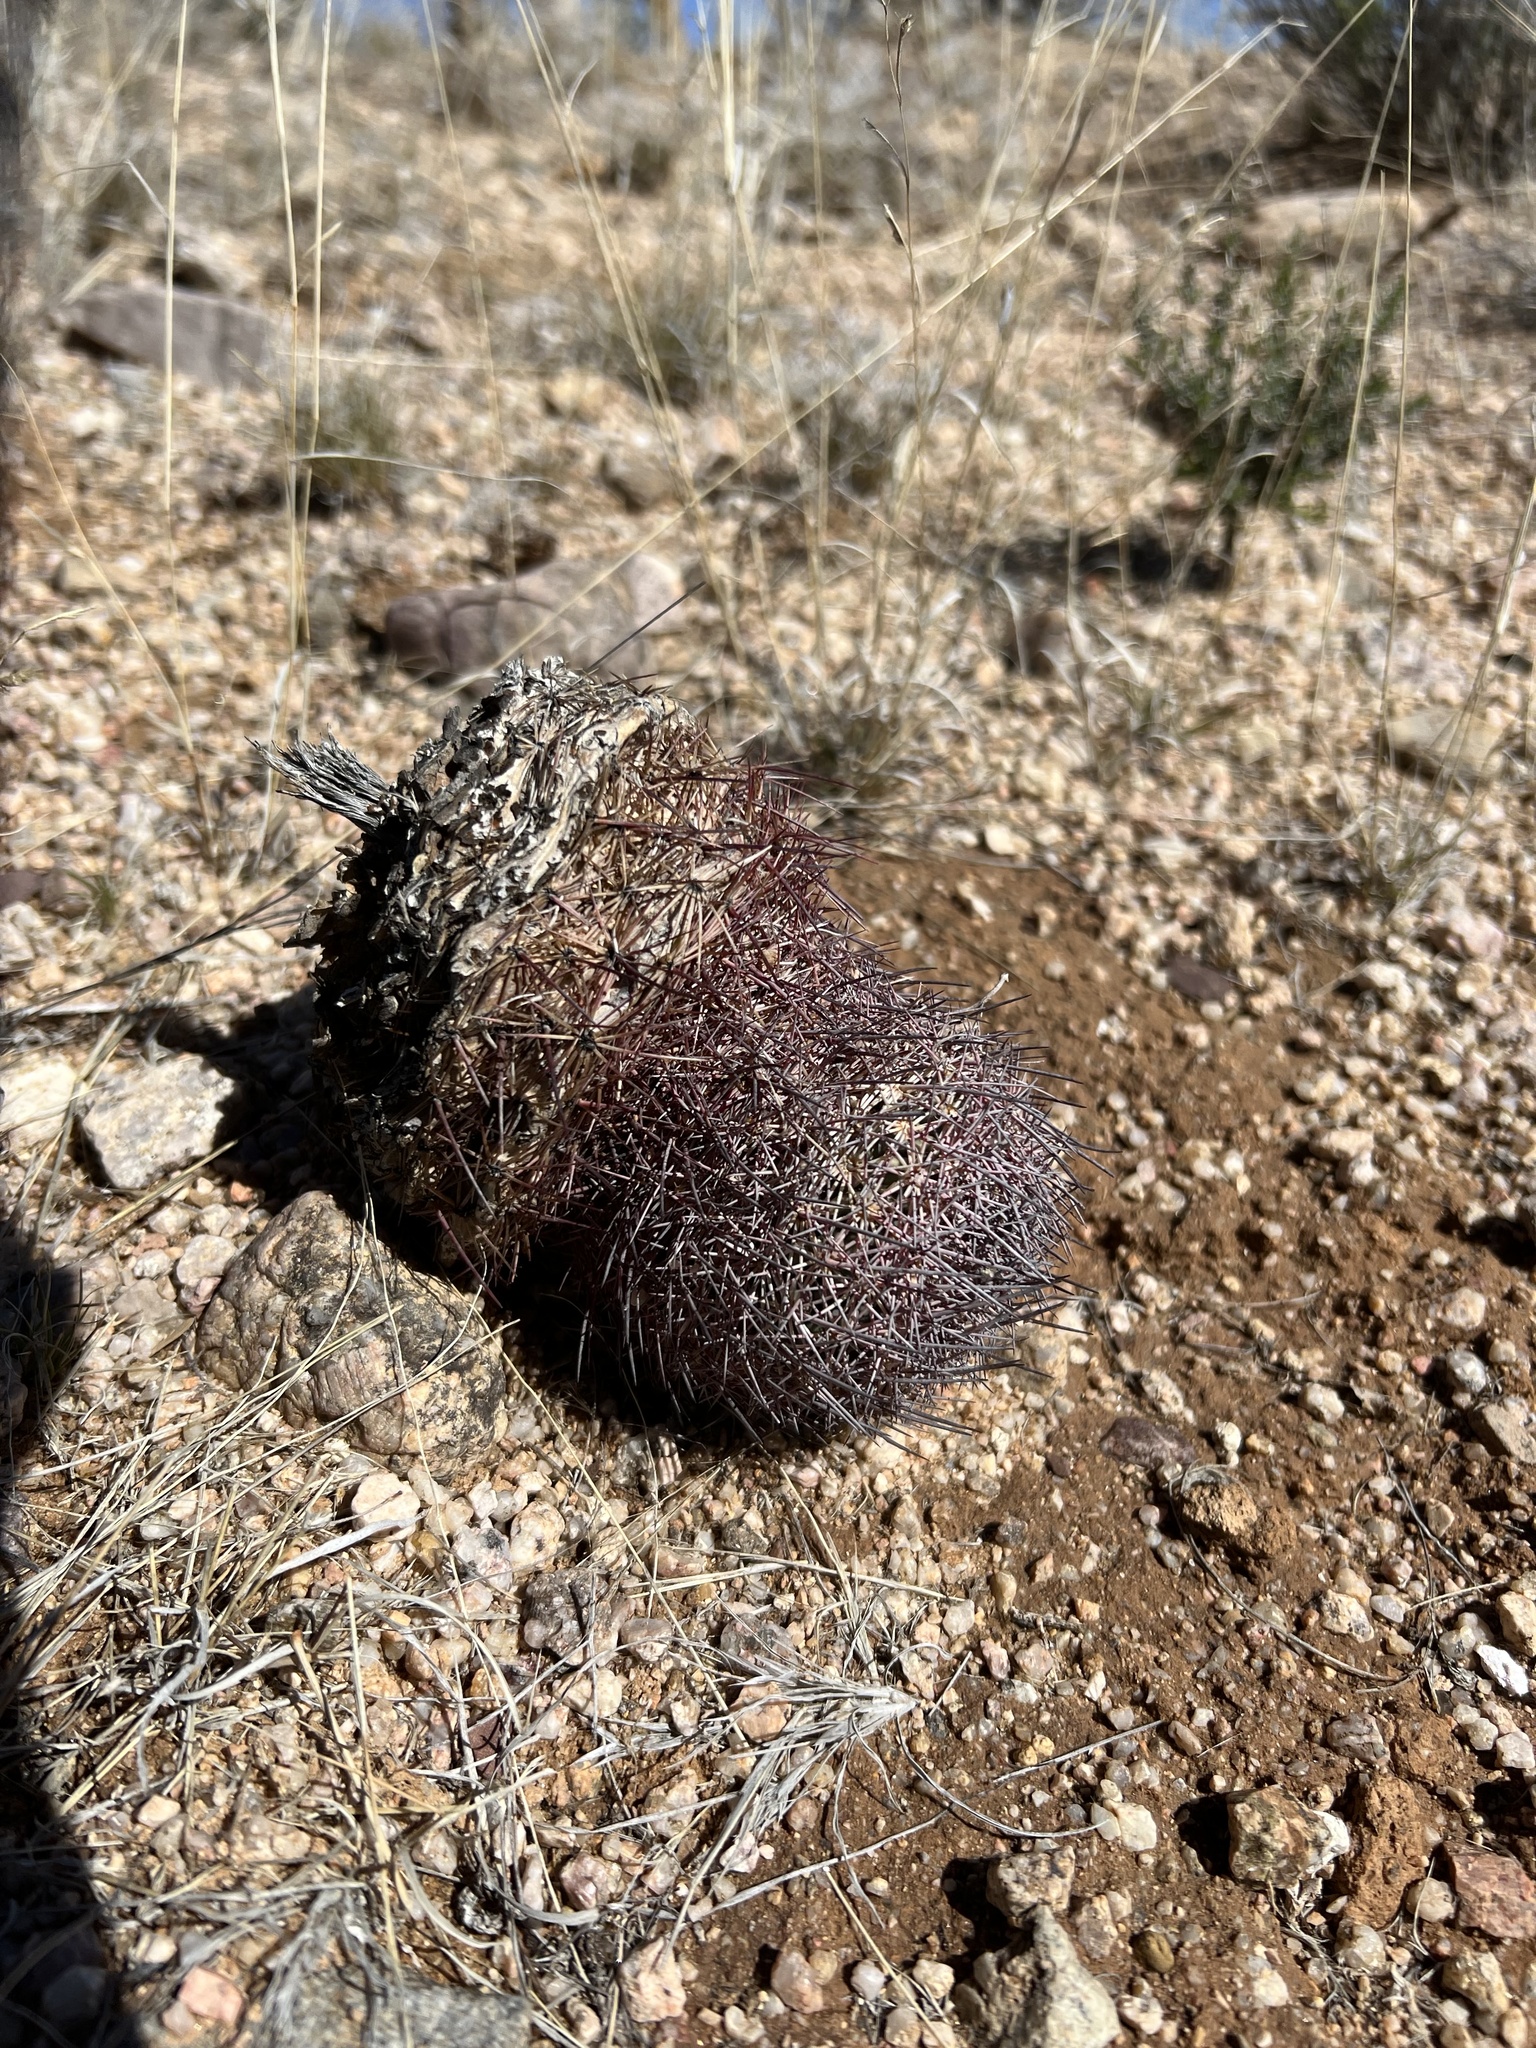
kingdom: Plantae
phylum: Tracheophyta
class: Magnoliopsida
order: Caryophyllales
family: Cactaceae
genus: Sclerocactus
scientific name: Sclerocactus johnsonii
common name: Eight-spine fishhook cactus
